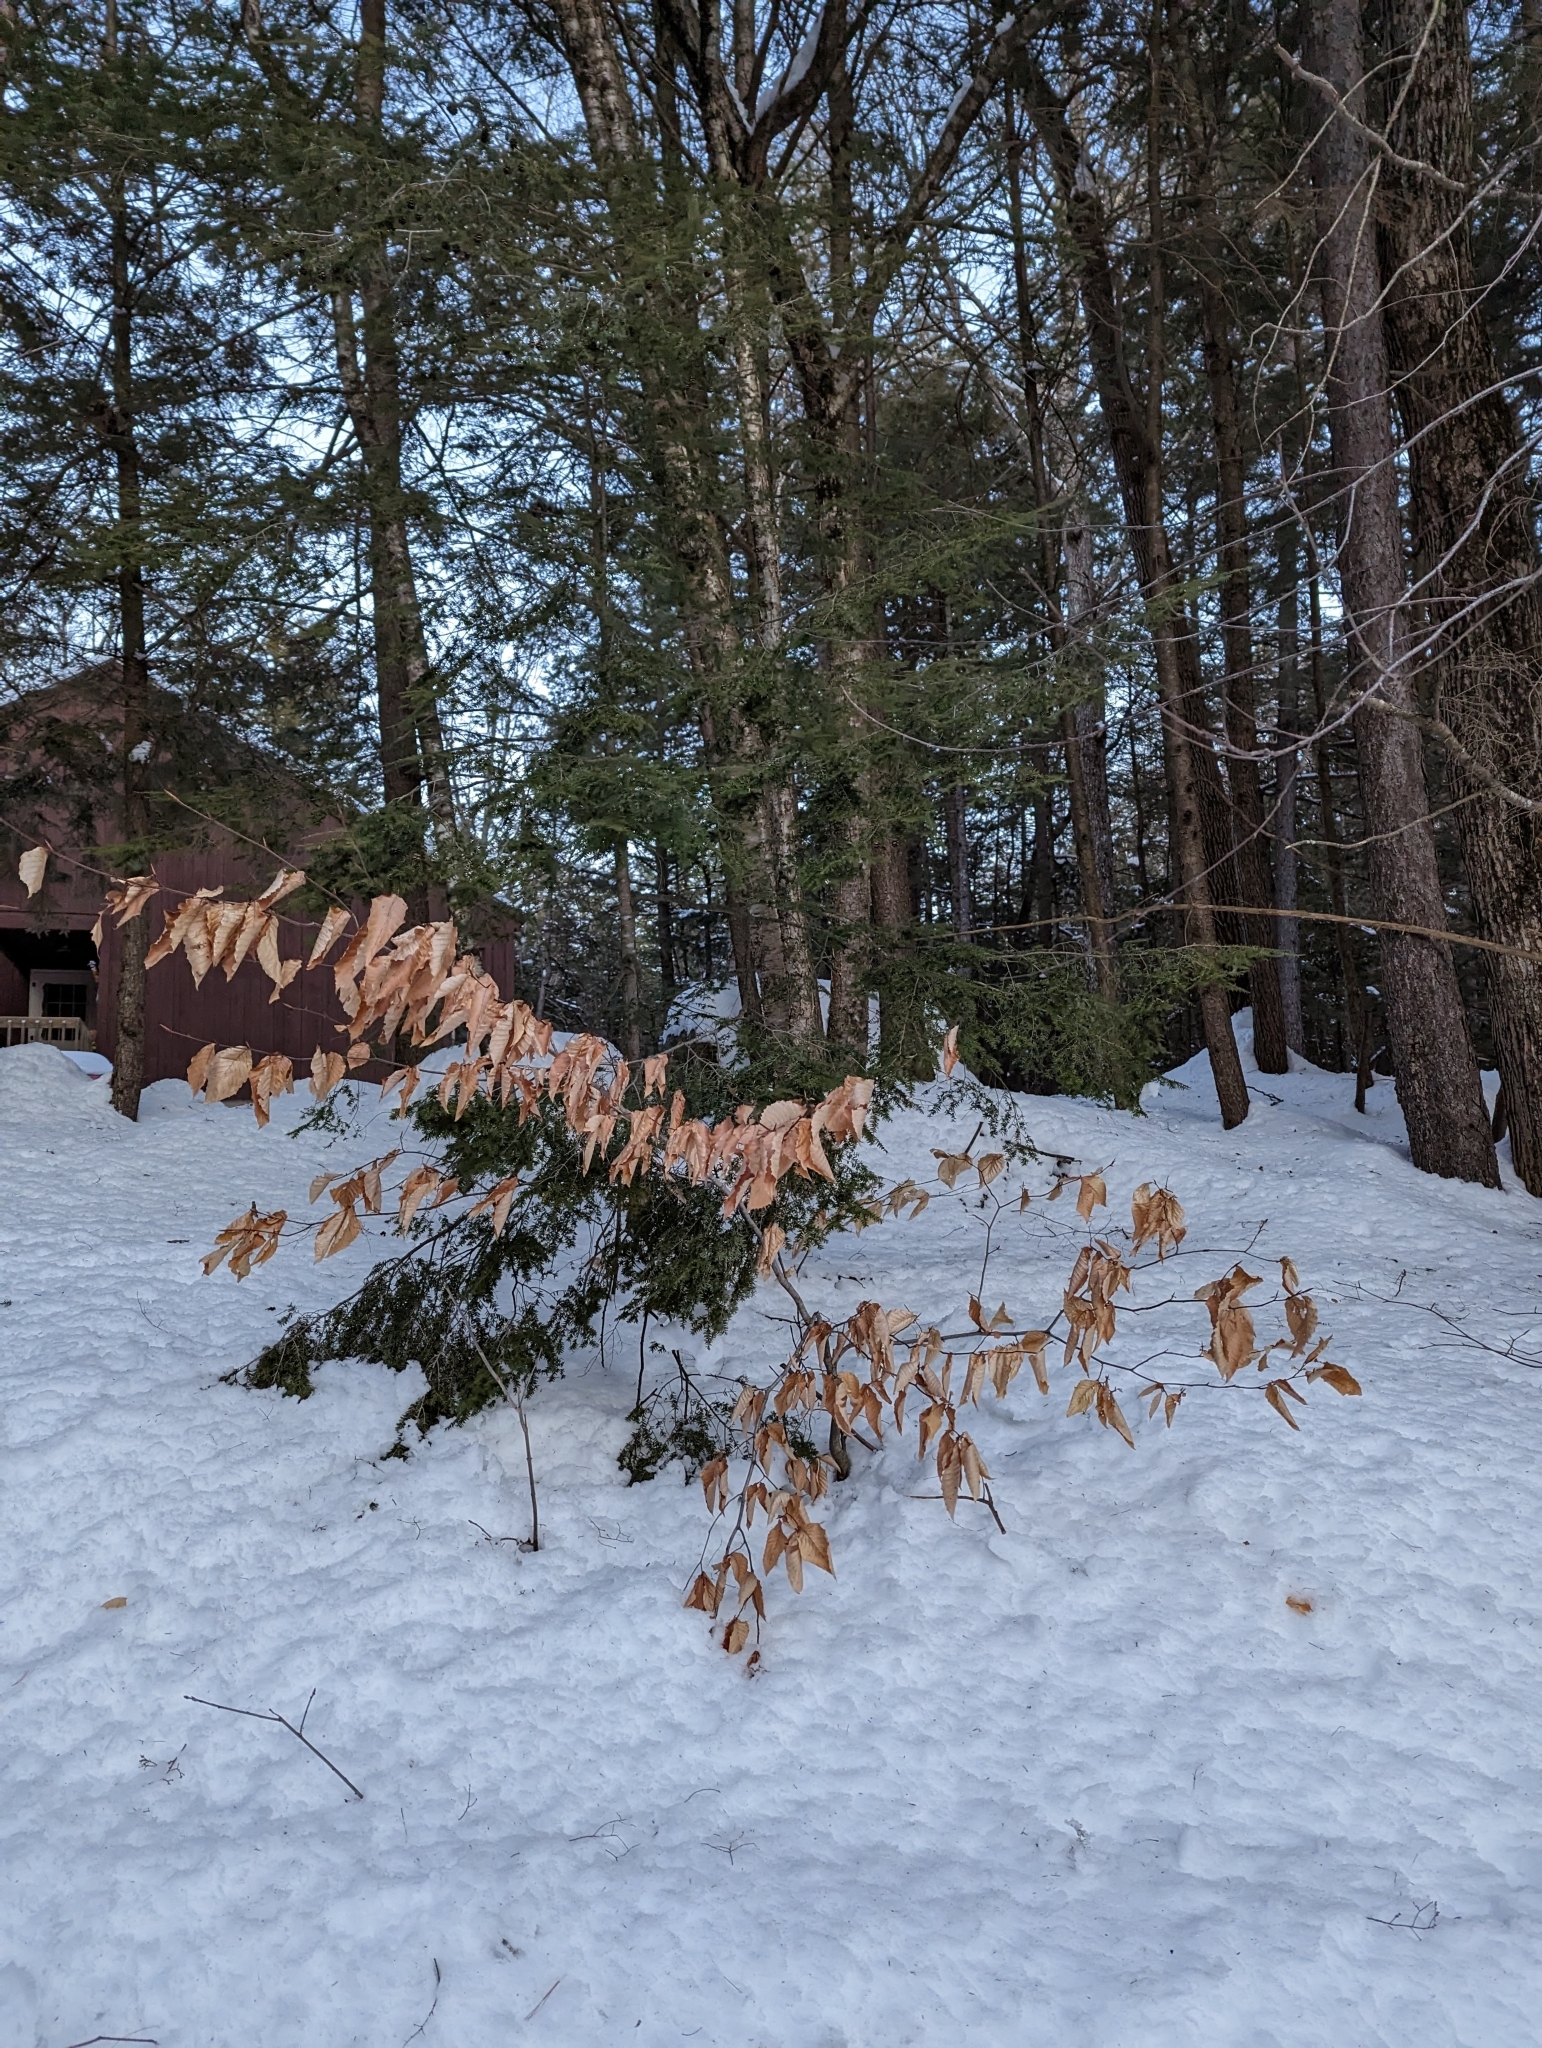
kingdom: Plantae
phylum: Tracheophyta
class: Magnoliopsida
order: Fagales
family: Fagaceae
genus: Fagus
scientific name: Fagus grandifolia
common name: American beech
